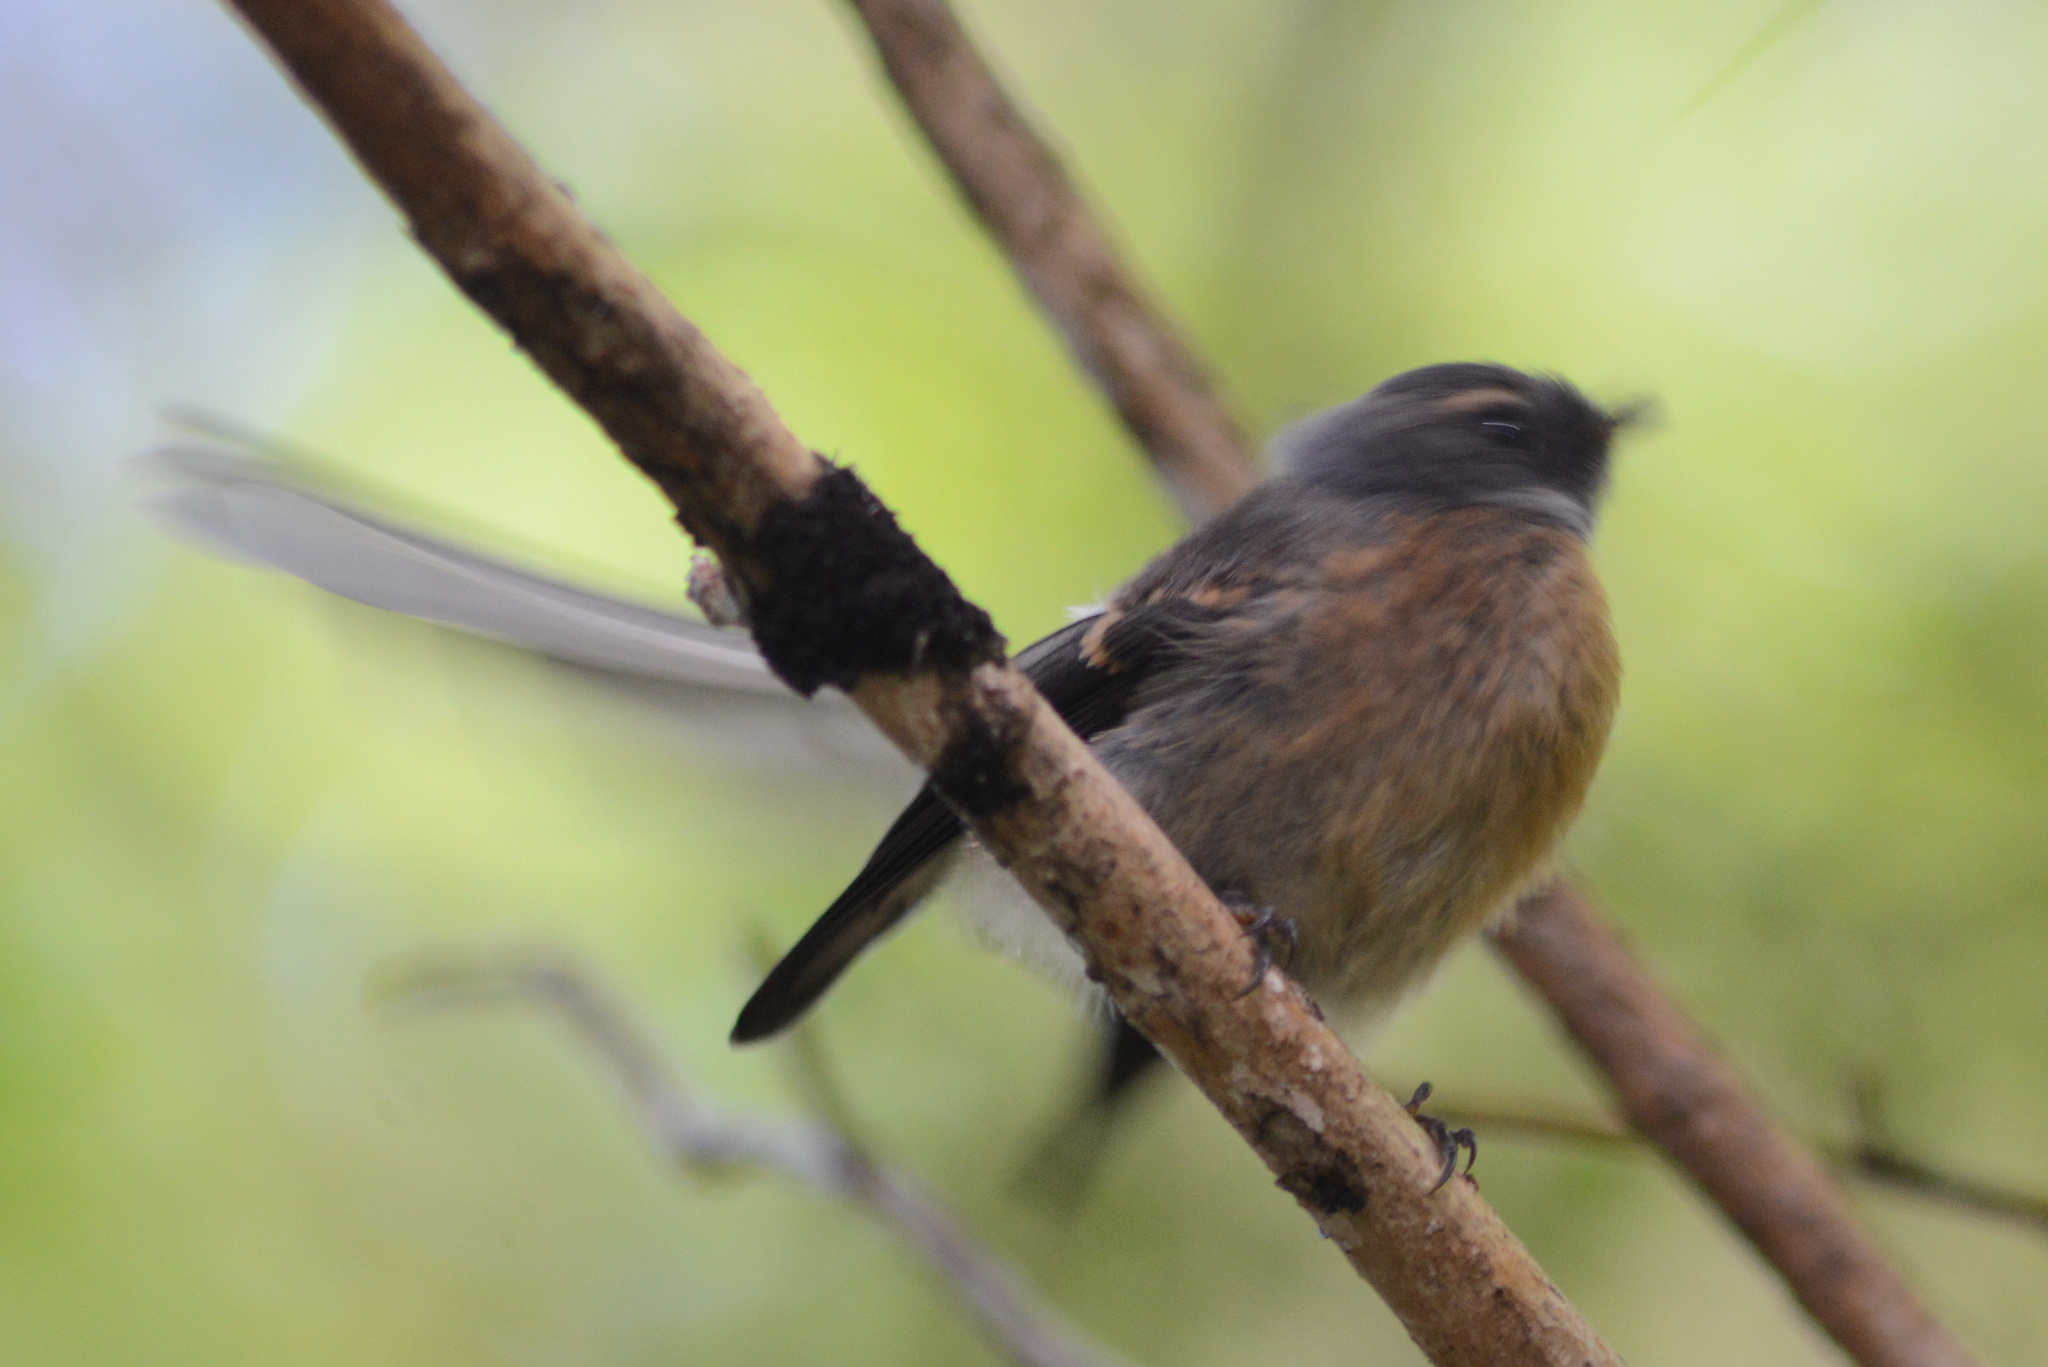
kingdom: Animalia
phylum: Chordata
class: Aves
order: Passeriformes
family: Rhipiduridae
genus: Rhipidura
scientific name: Rhipidura fuliginosa
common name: New zealand fantail
